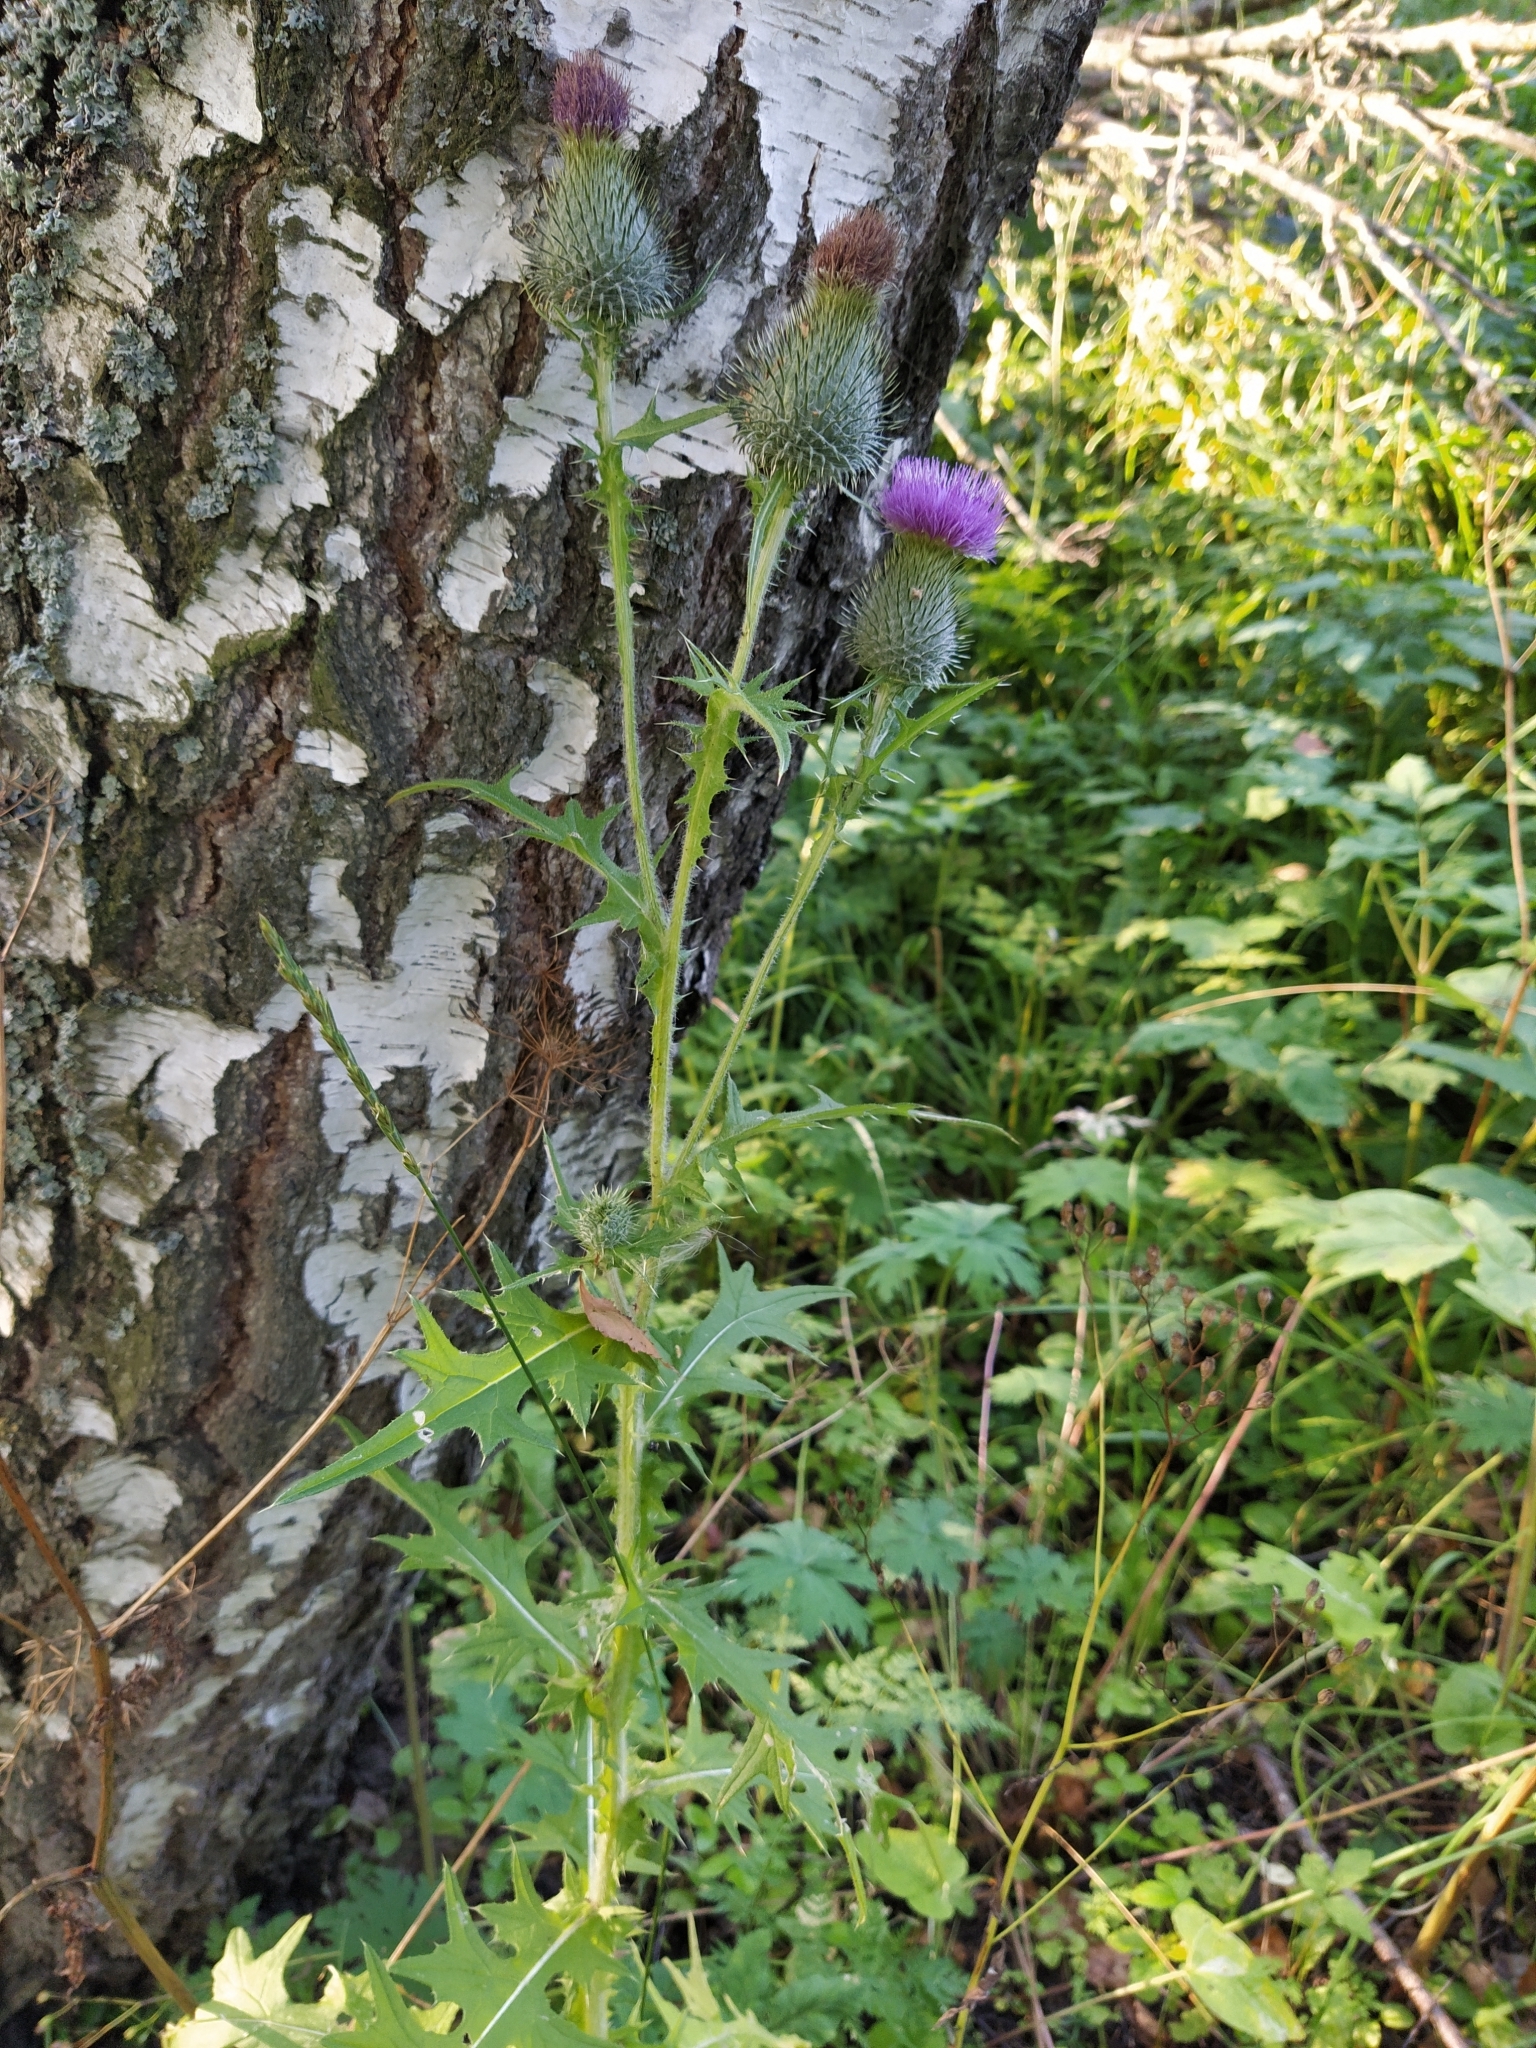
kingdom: Plantae
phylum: Tracheophyta
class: Magnoliopsida
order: Asterales
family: Asteraceae
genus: Cirsium
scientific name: Cirsium vulgare
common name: Bull thistle
